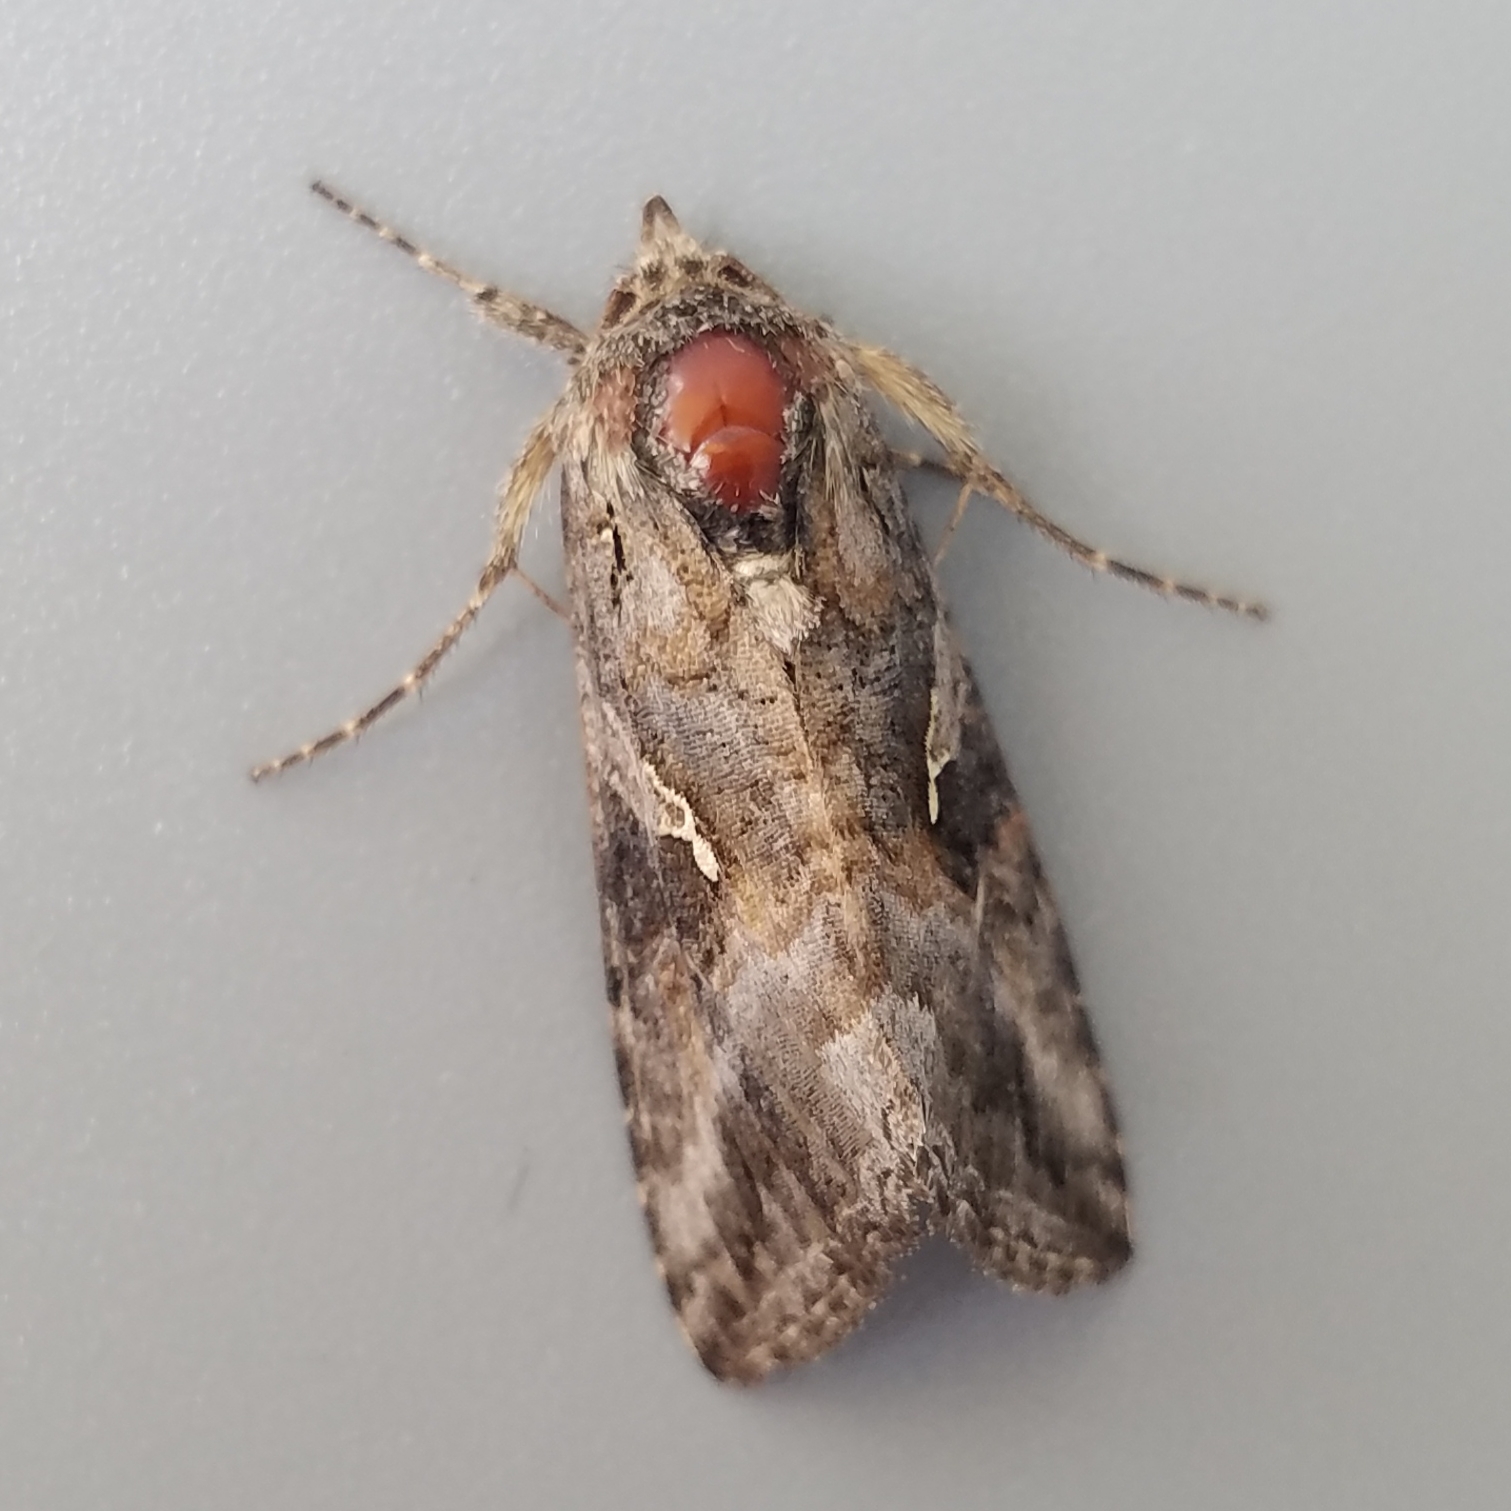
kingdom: Animalia
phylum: Arthropoda
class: Insecta
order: Lepidoptera
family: Noctuidae
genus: Rachiplusia
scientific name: Rachiplusia ou
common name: Gray looper moth
